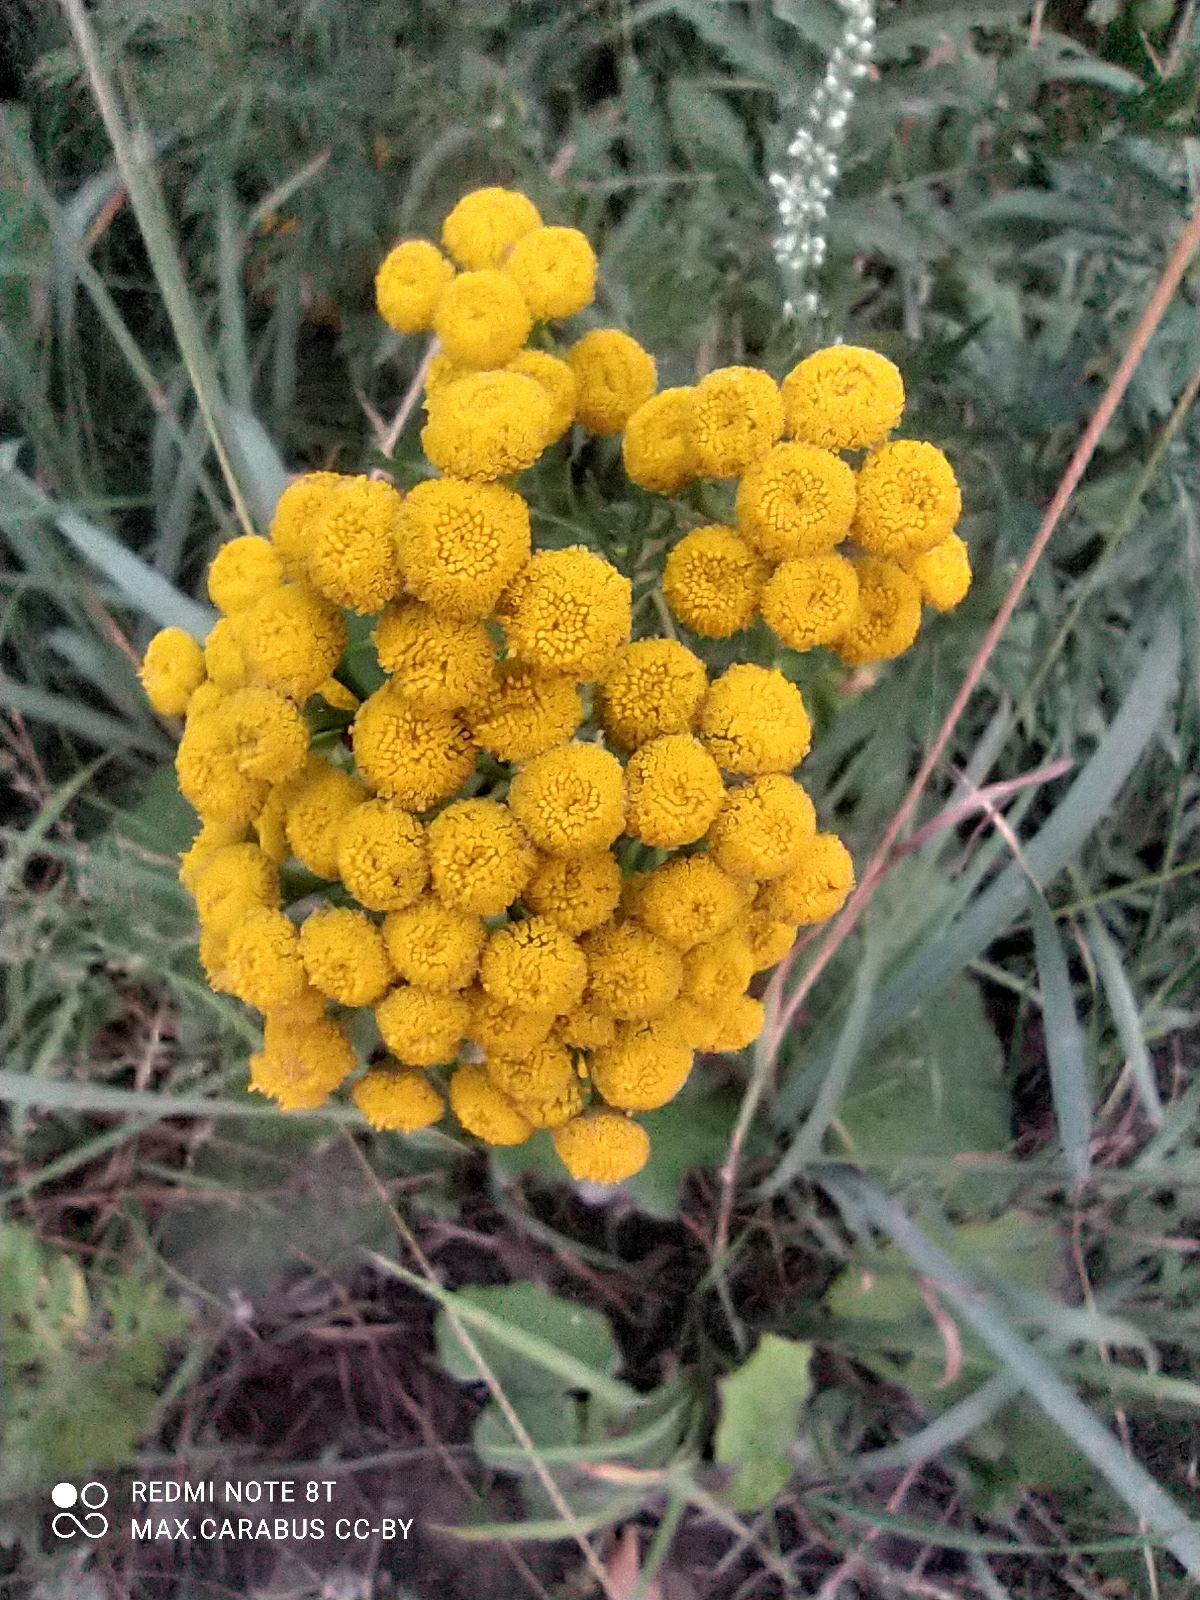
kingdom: Plantae
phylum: Tracheophyta
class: Magnoliopsida
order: Asterales
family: Asteraceae
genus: Tanacetum
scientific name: Tanacetum vulgare
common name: Common tansy
